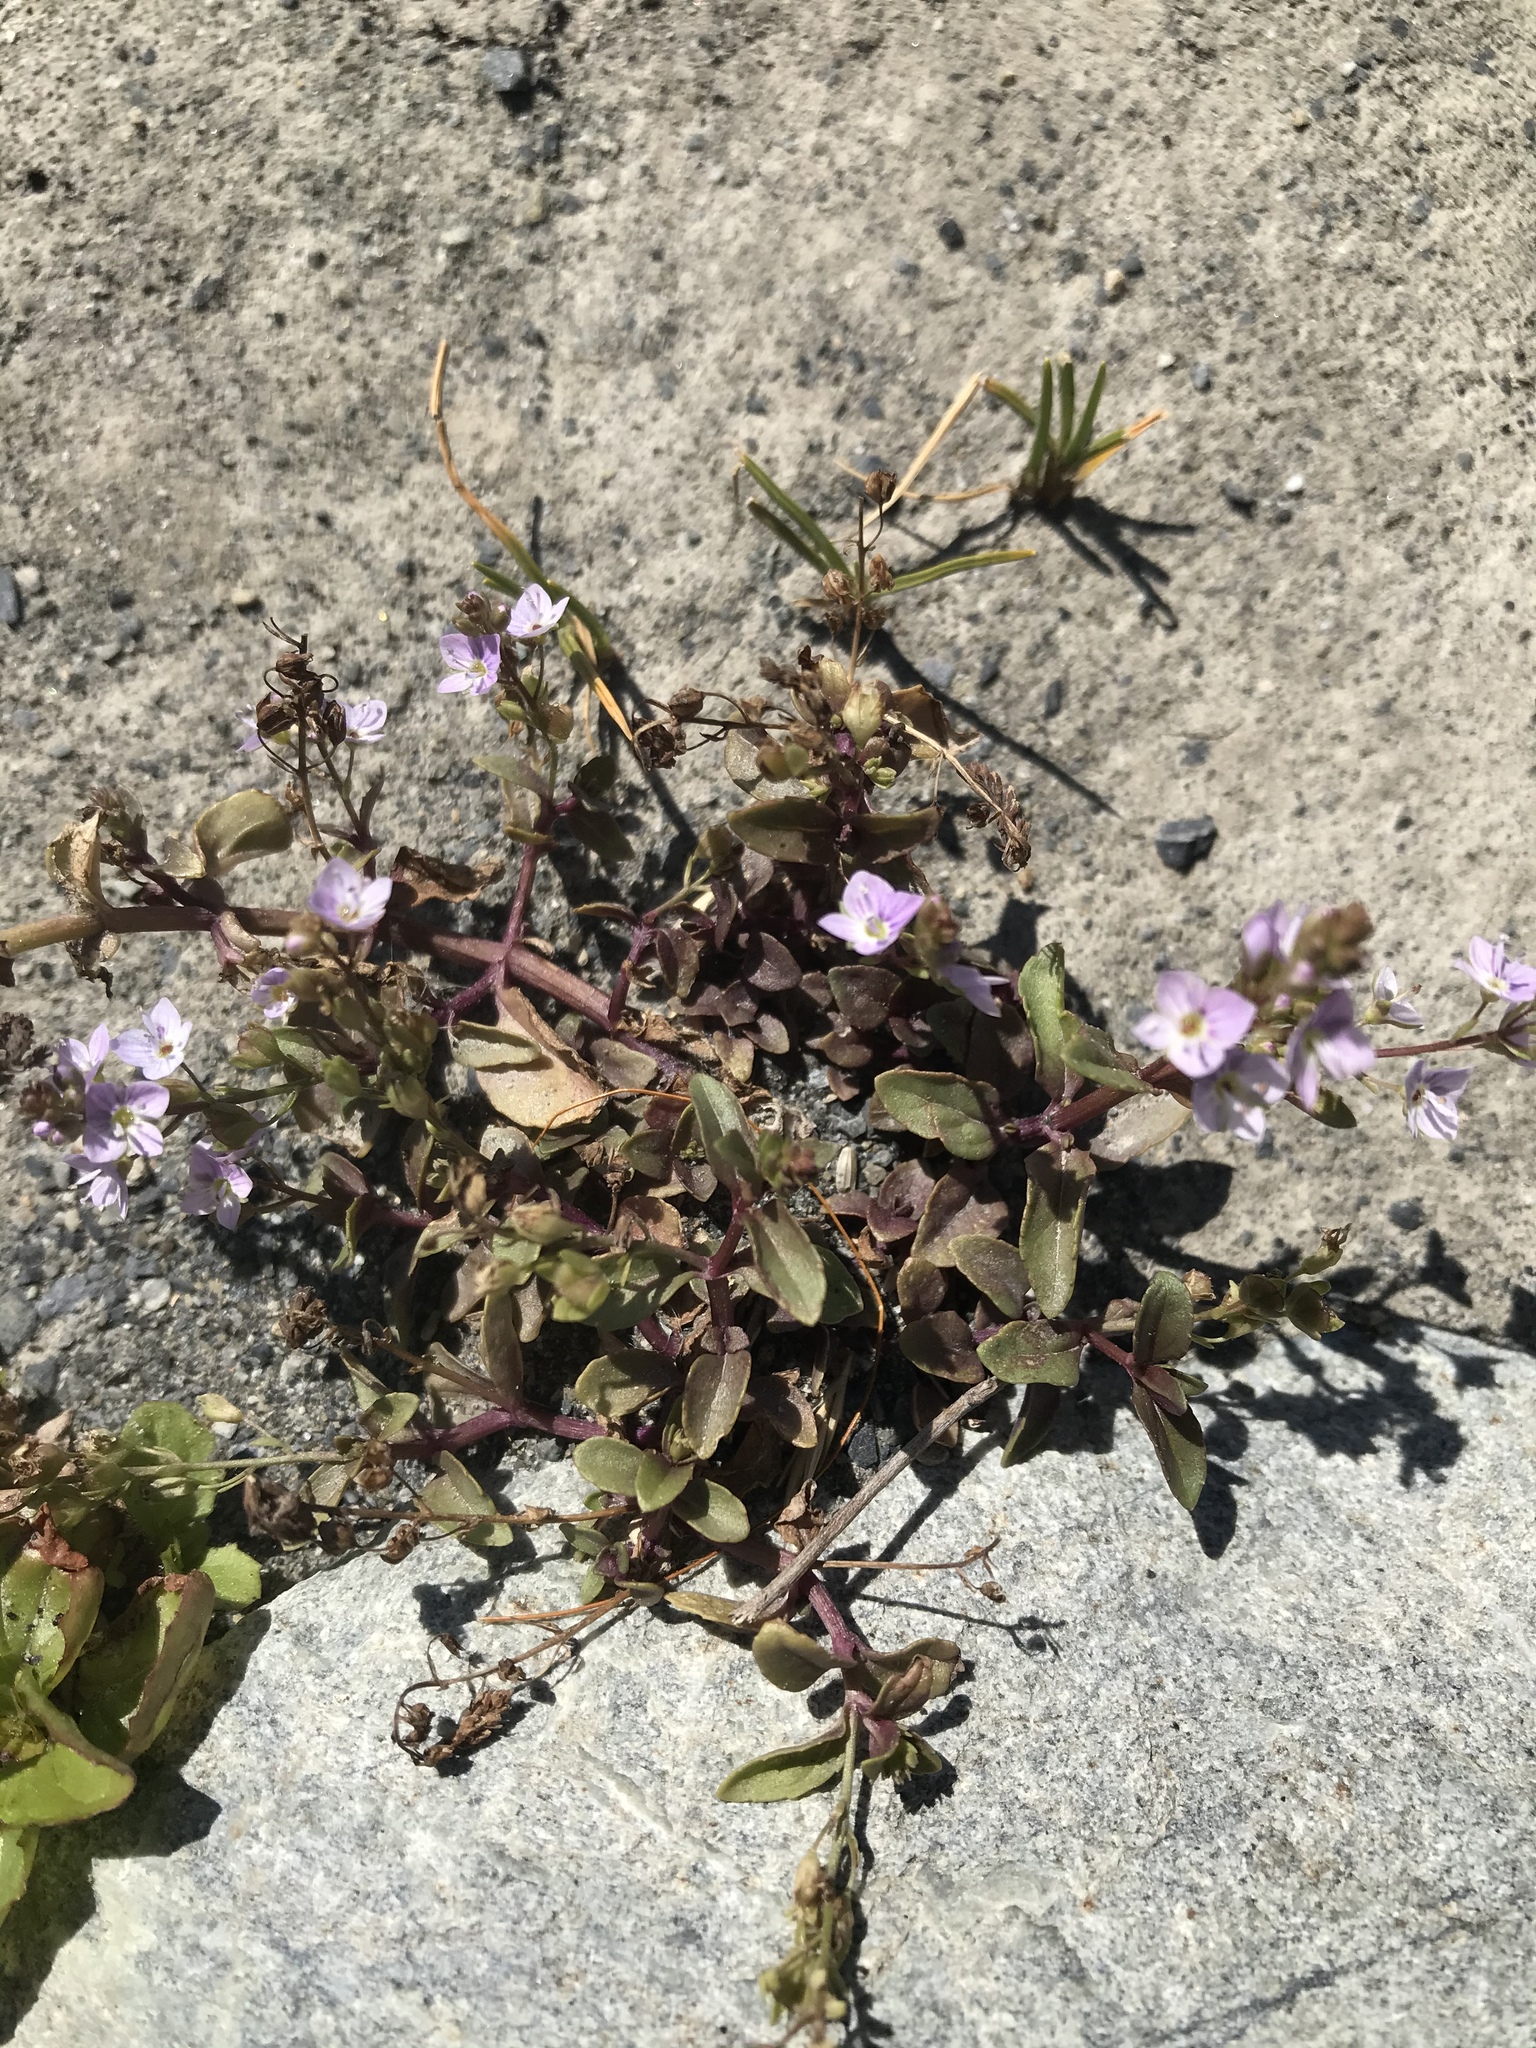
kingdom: Plantae
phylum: Tracheophyta
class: Magnoliopsida
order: Lamiales
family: Plantaginaceae
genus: Veronica
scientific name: Veronica anagallis-aquatica
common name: Water speedwell
